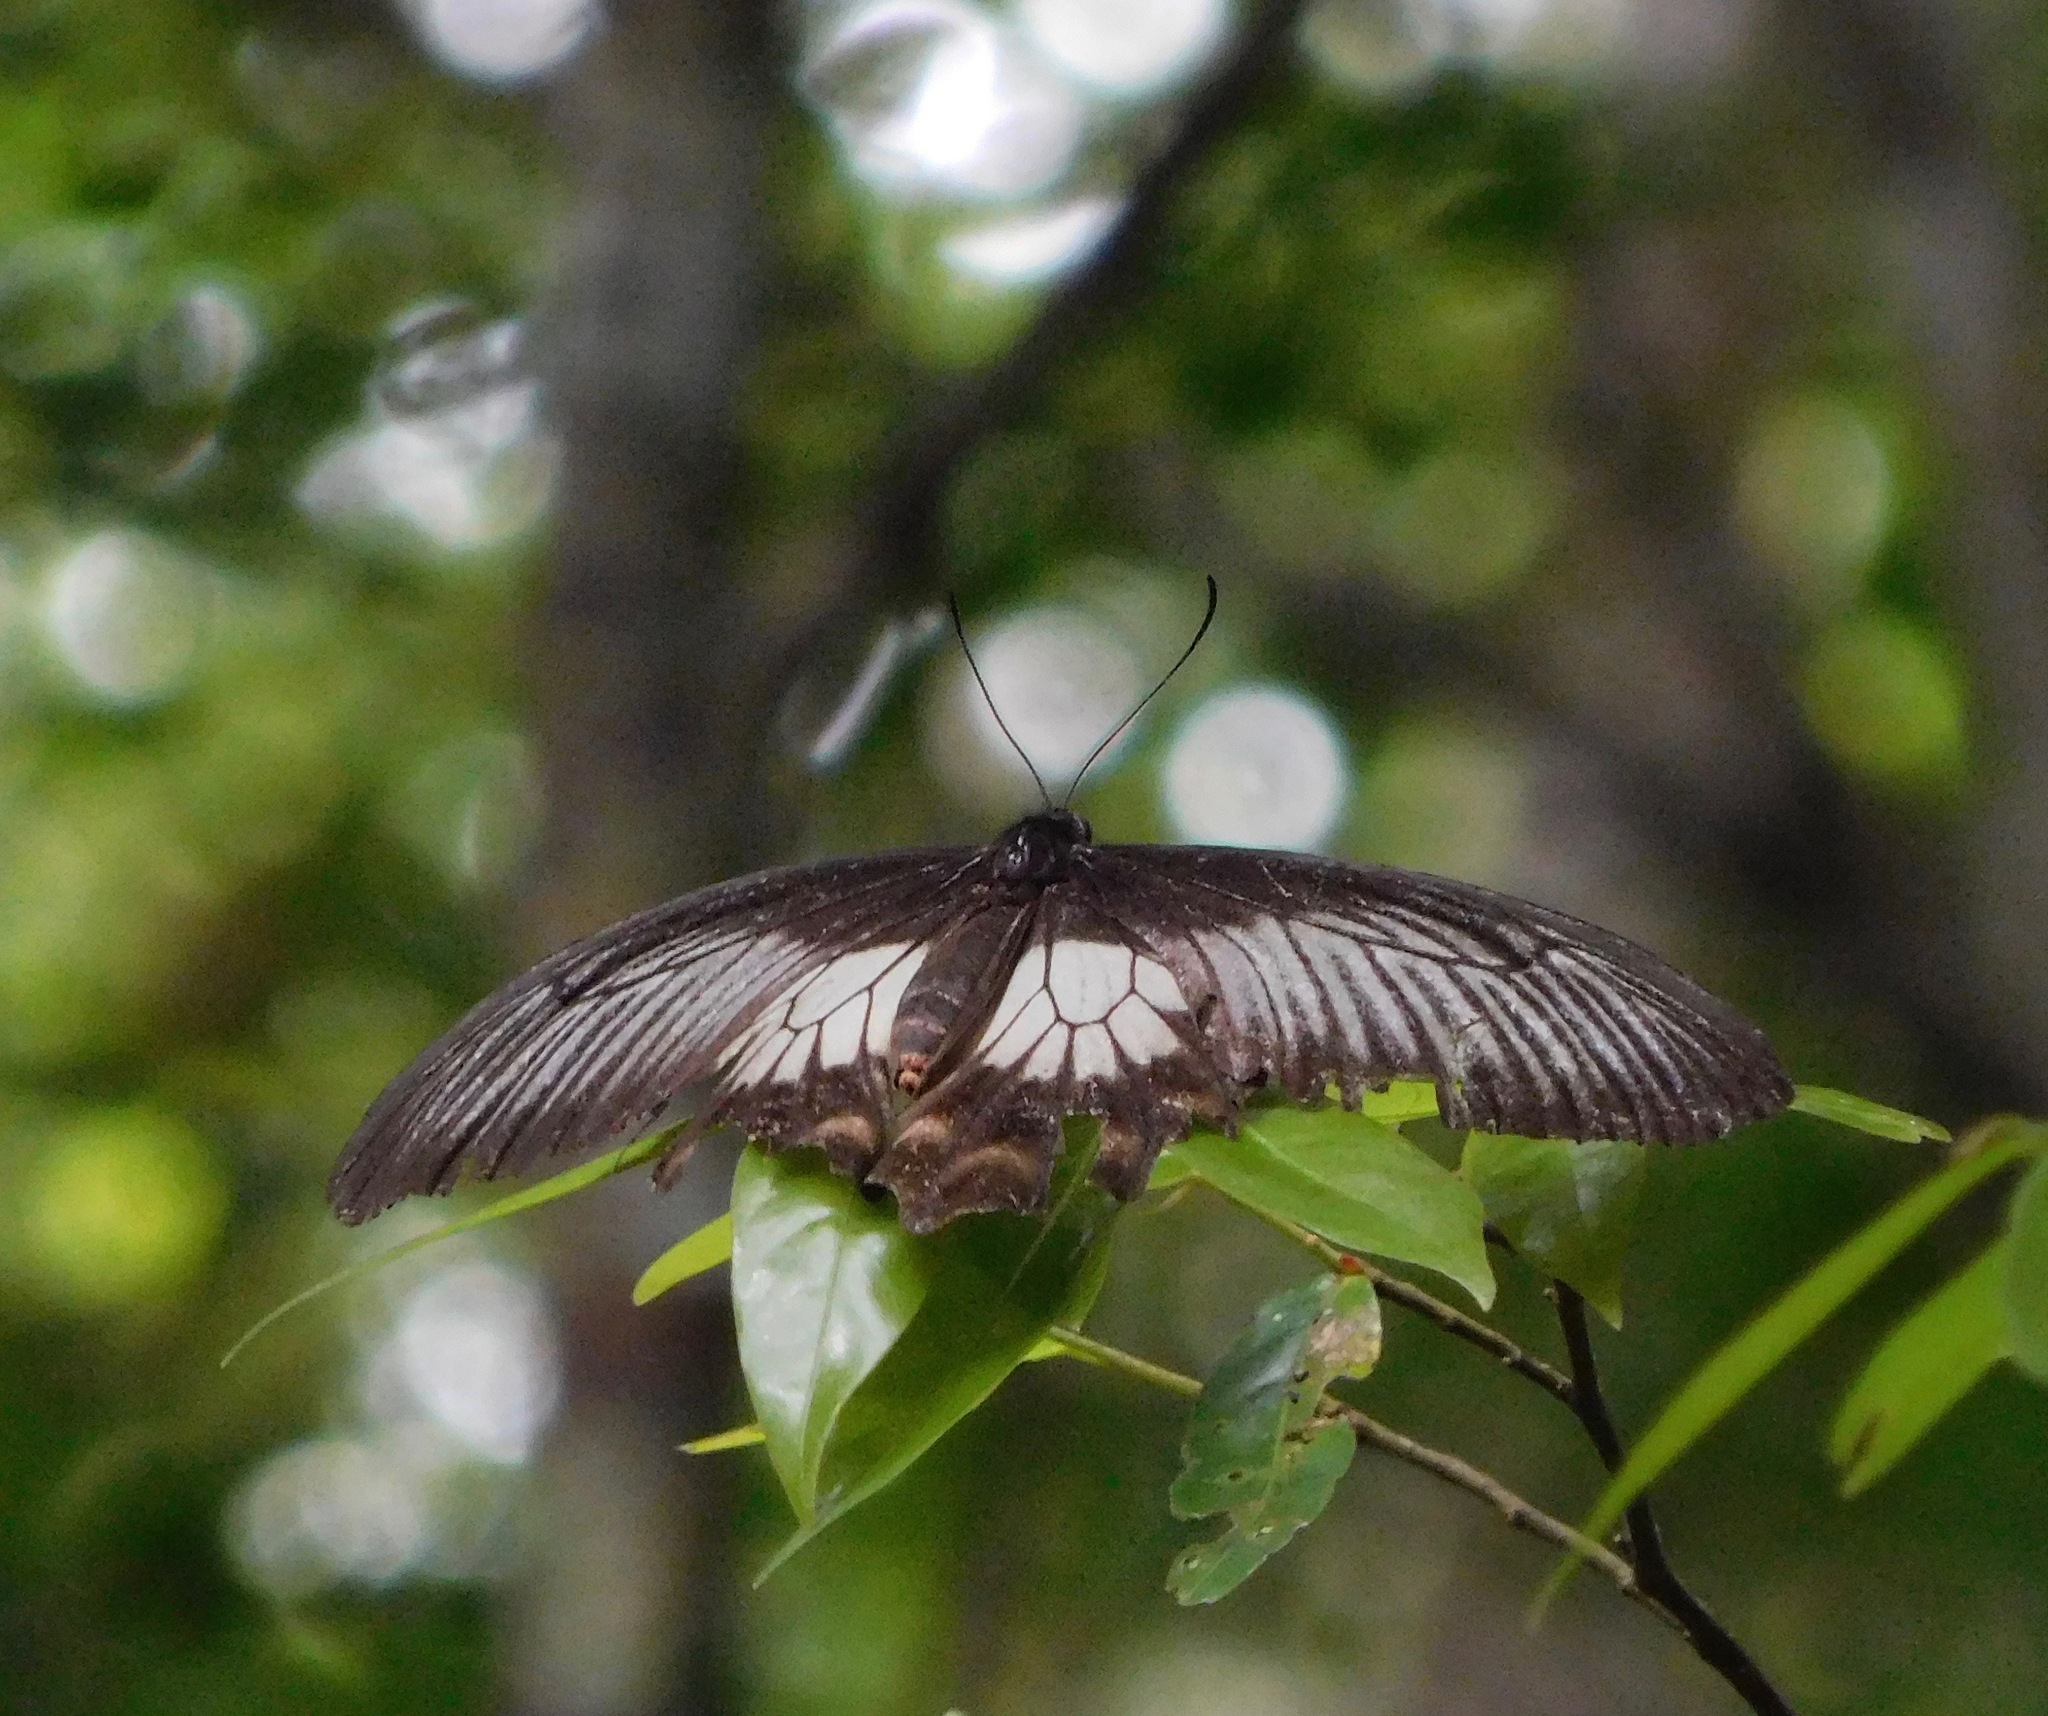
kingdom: Animalia
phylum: Arthropoda
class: Insecta
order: Lepidoptera
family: Papilionidae
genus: Pachliopta
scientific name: Pachliopta pandiyana
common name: Malabar rose
